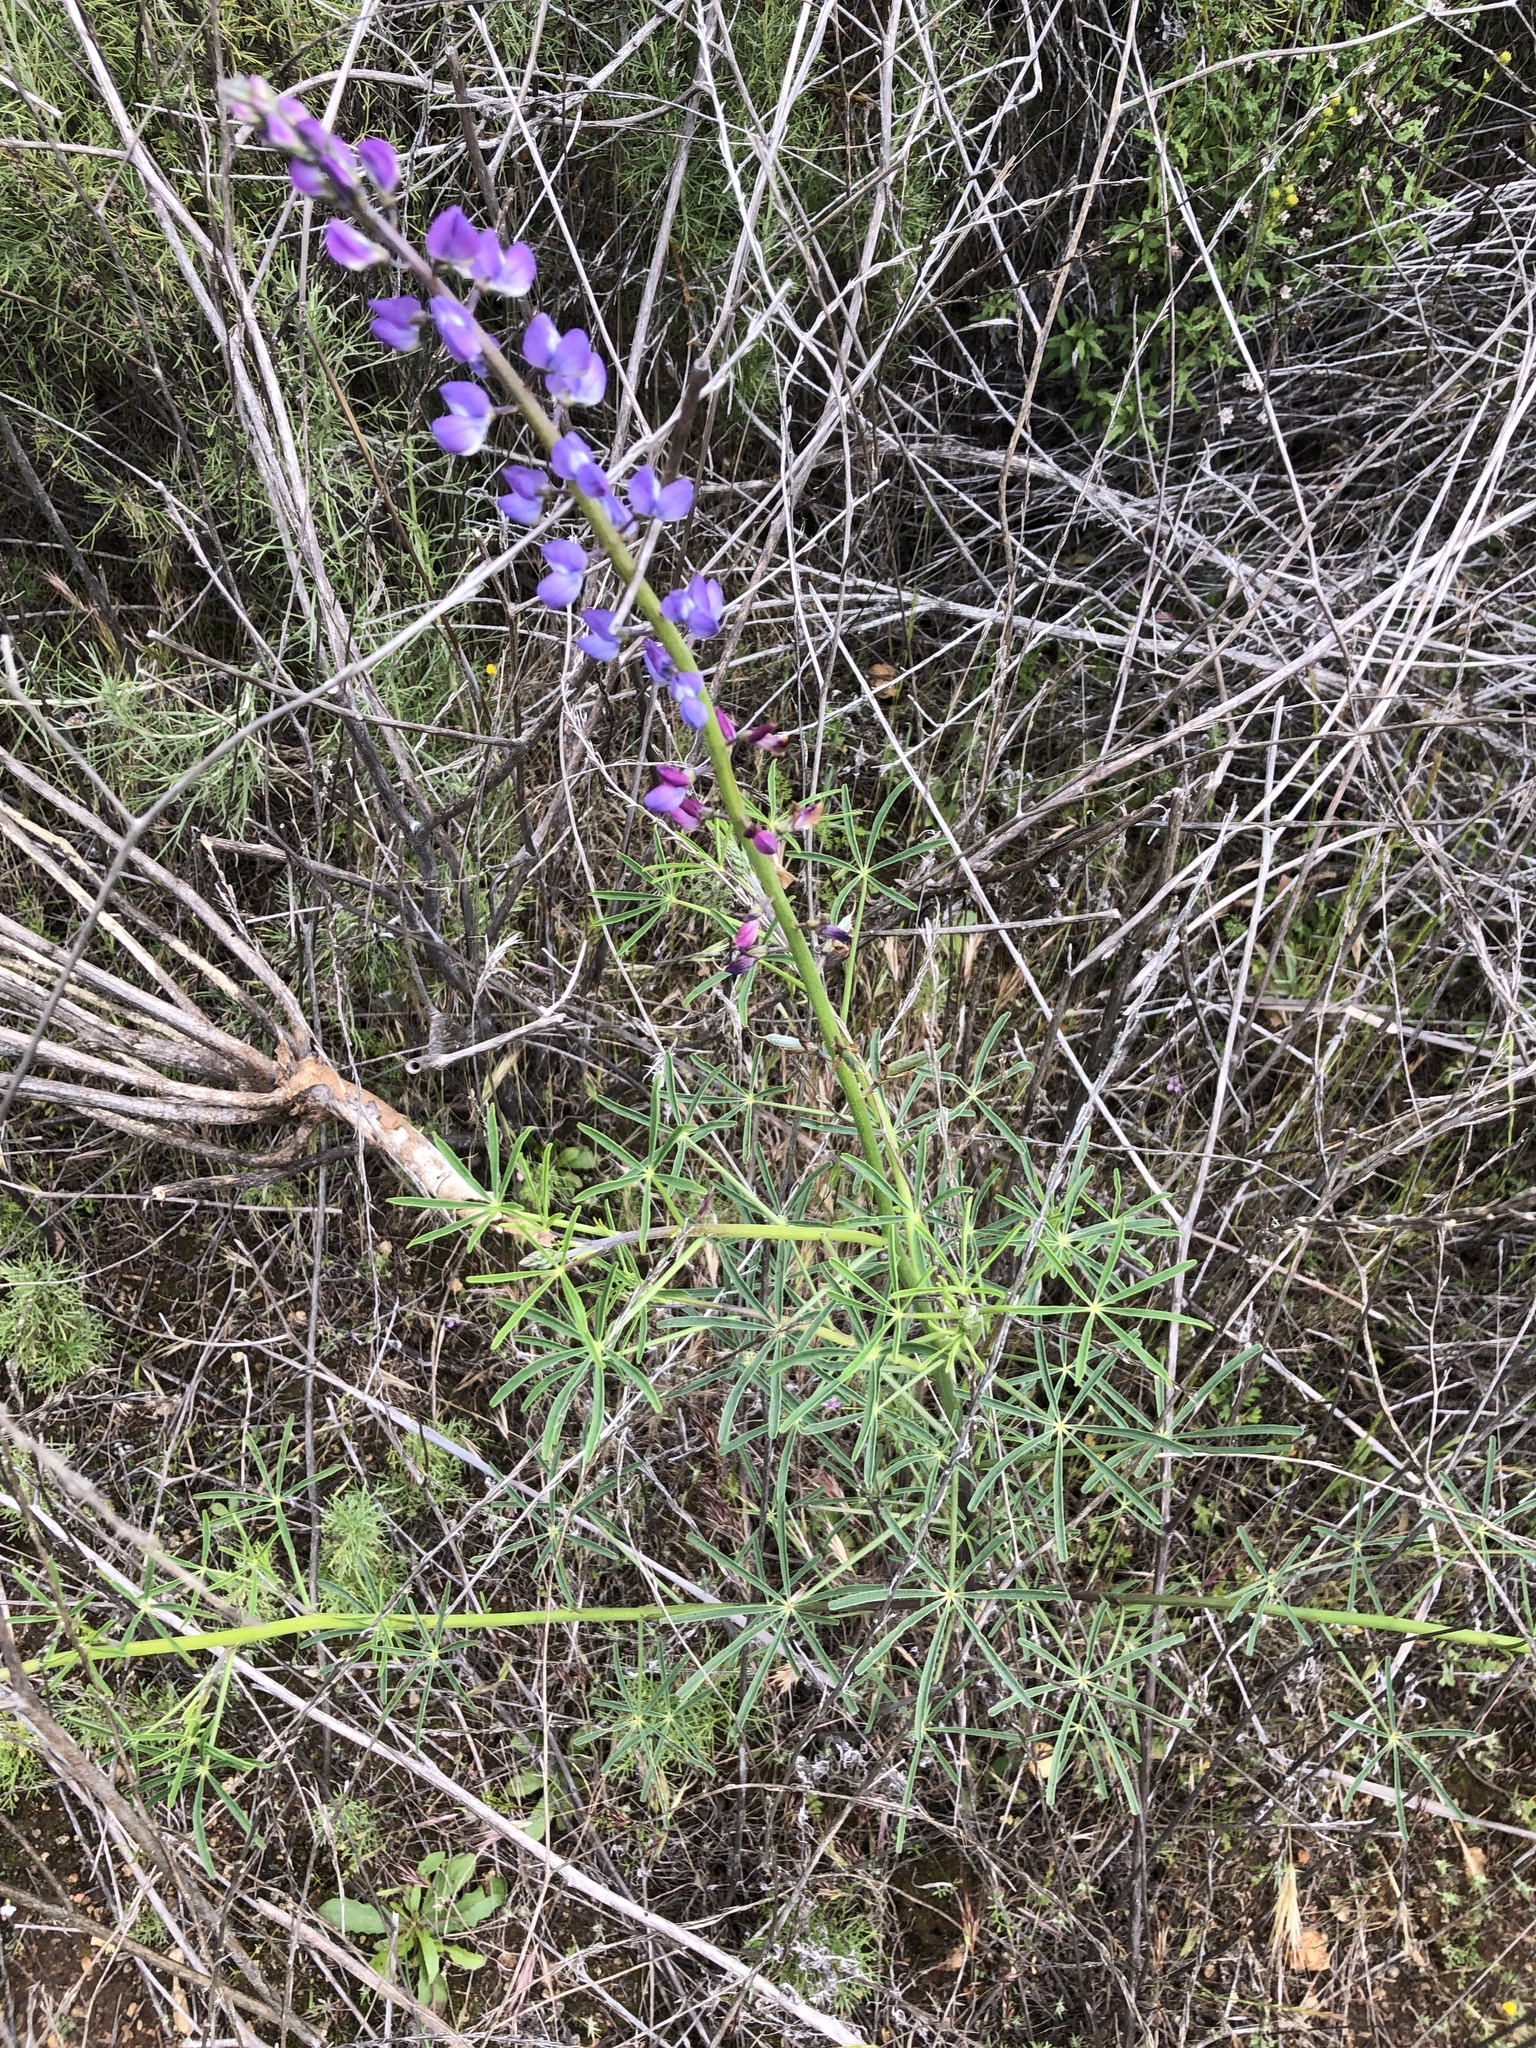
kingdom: Plantae
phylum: Tracheophyta
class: Magnoliopsida
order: Fabales
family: Fabaceae
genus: Lupinus
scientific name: Lupinus truncatus
